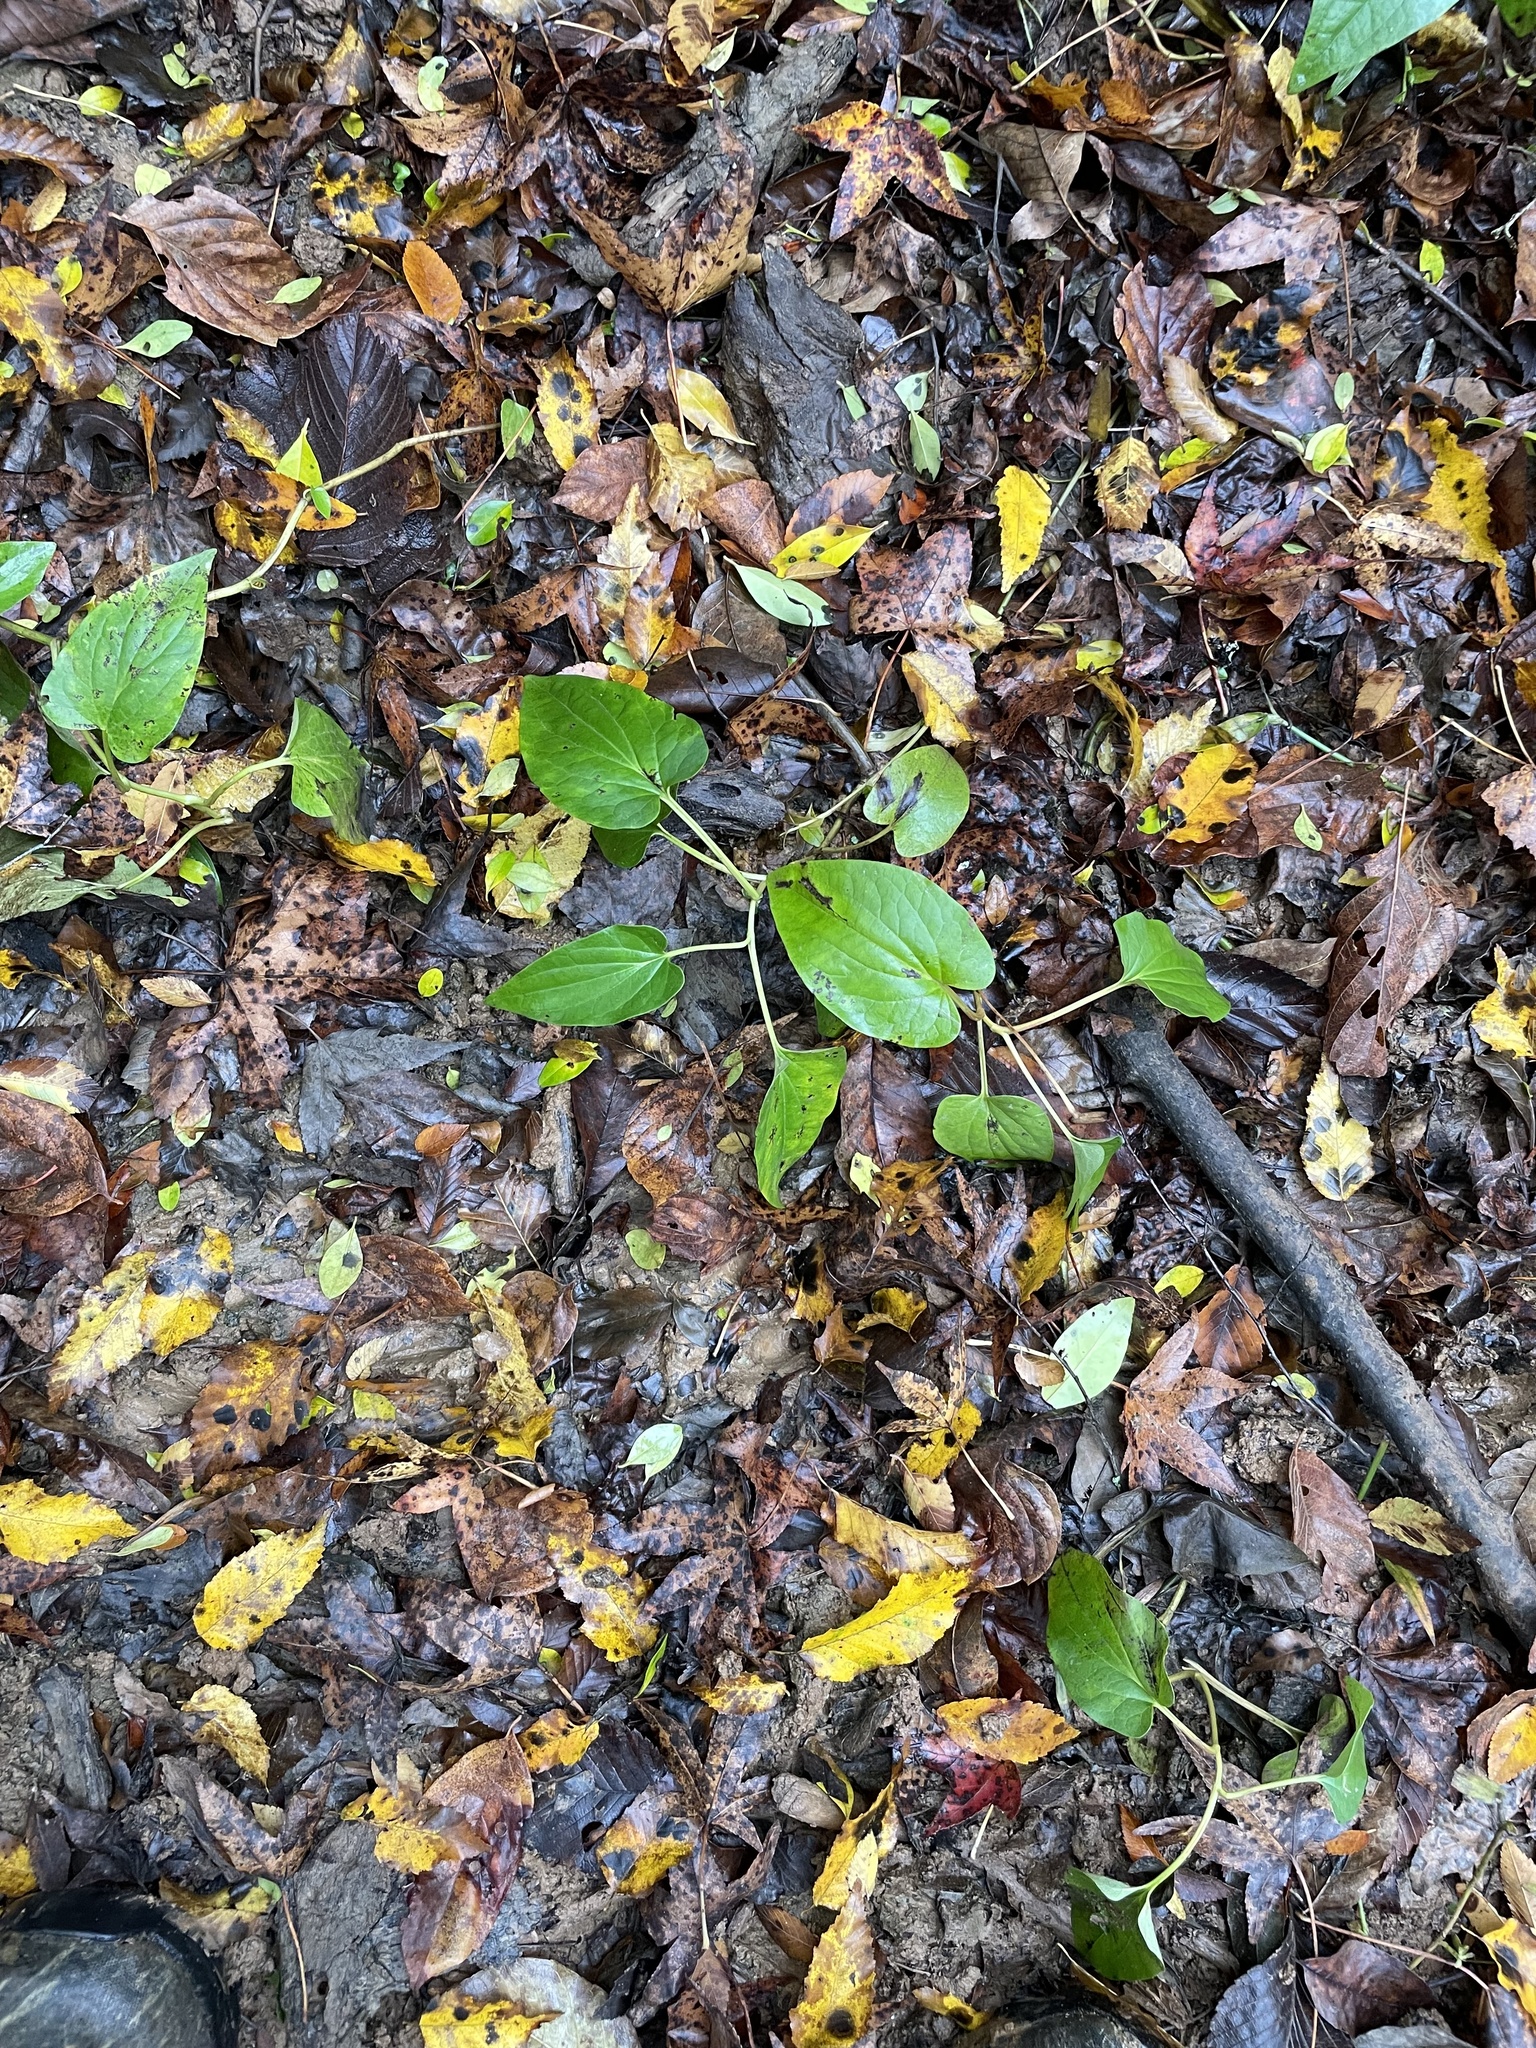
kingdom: Plantae
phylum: Tracheophyta
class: Magnoliopsida
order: Piperales
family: Saururaceae
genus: Saururus
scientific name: Saururus cernuus
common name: Lizard's-tail
